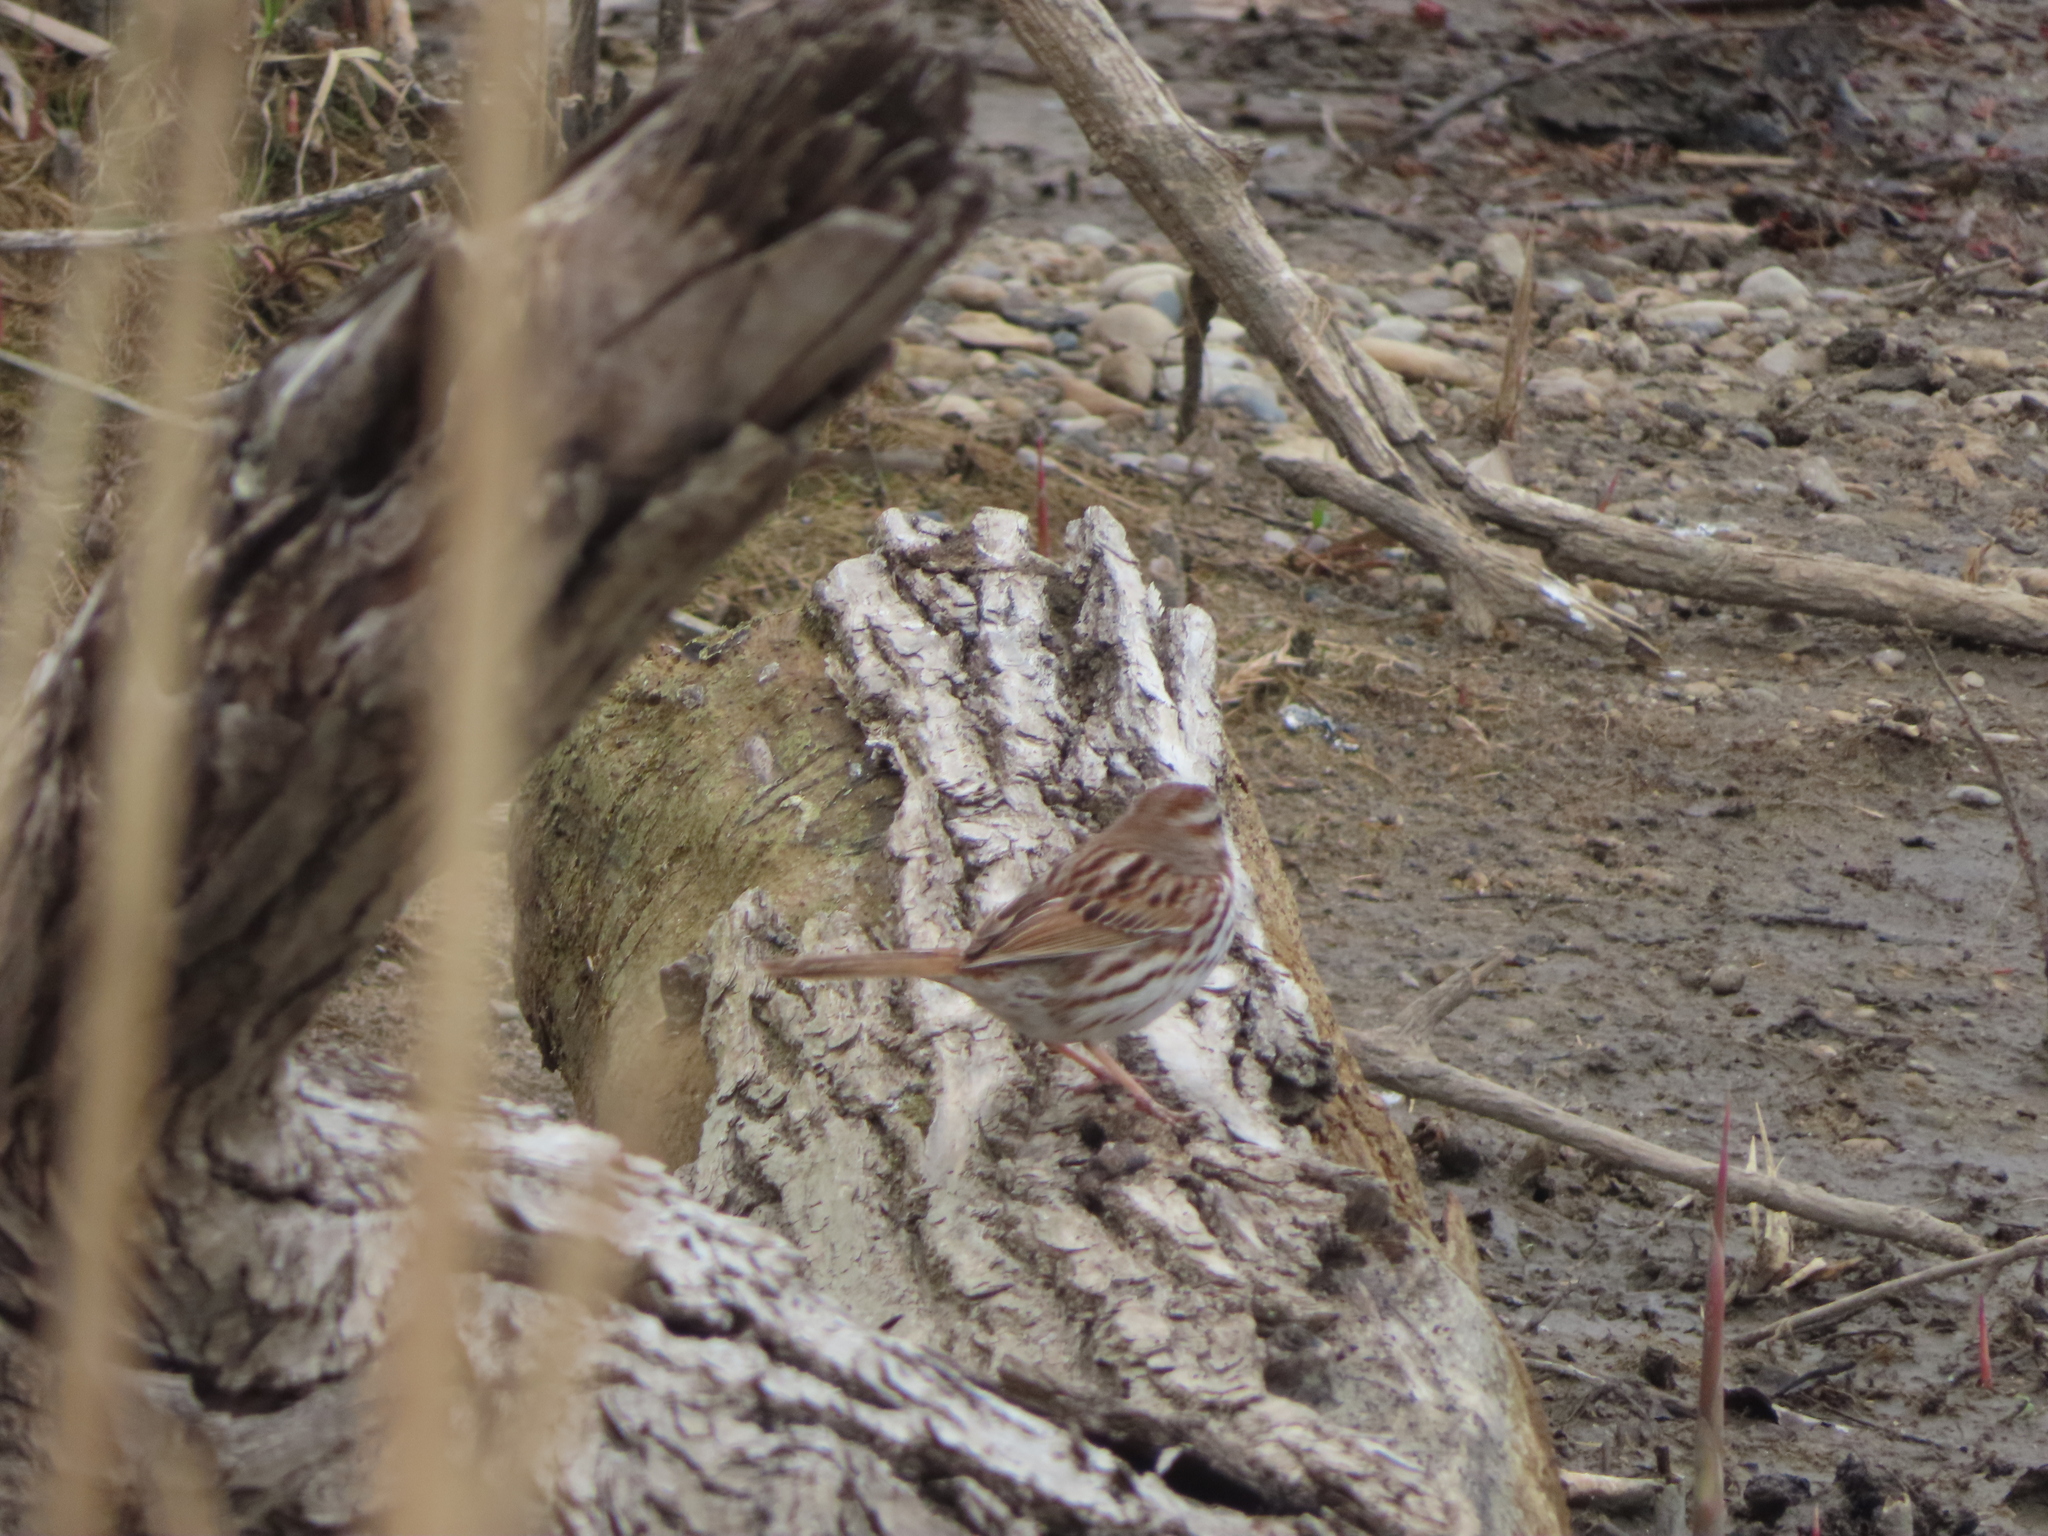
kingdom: Animalia
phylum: Chordata
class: Aves
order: Passeriformes
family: Passerellidae
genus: Melospiza
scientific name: Melospiza melodia
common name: Song sparrow
